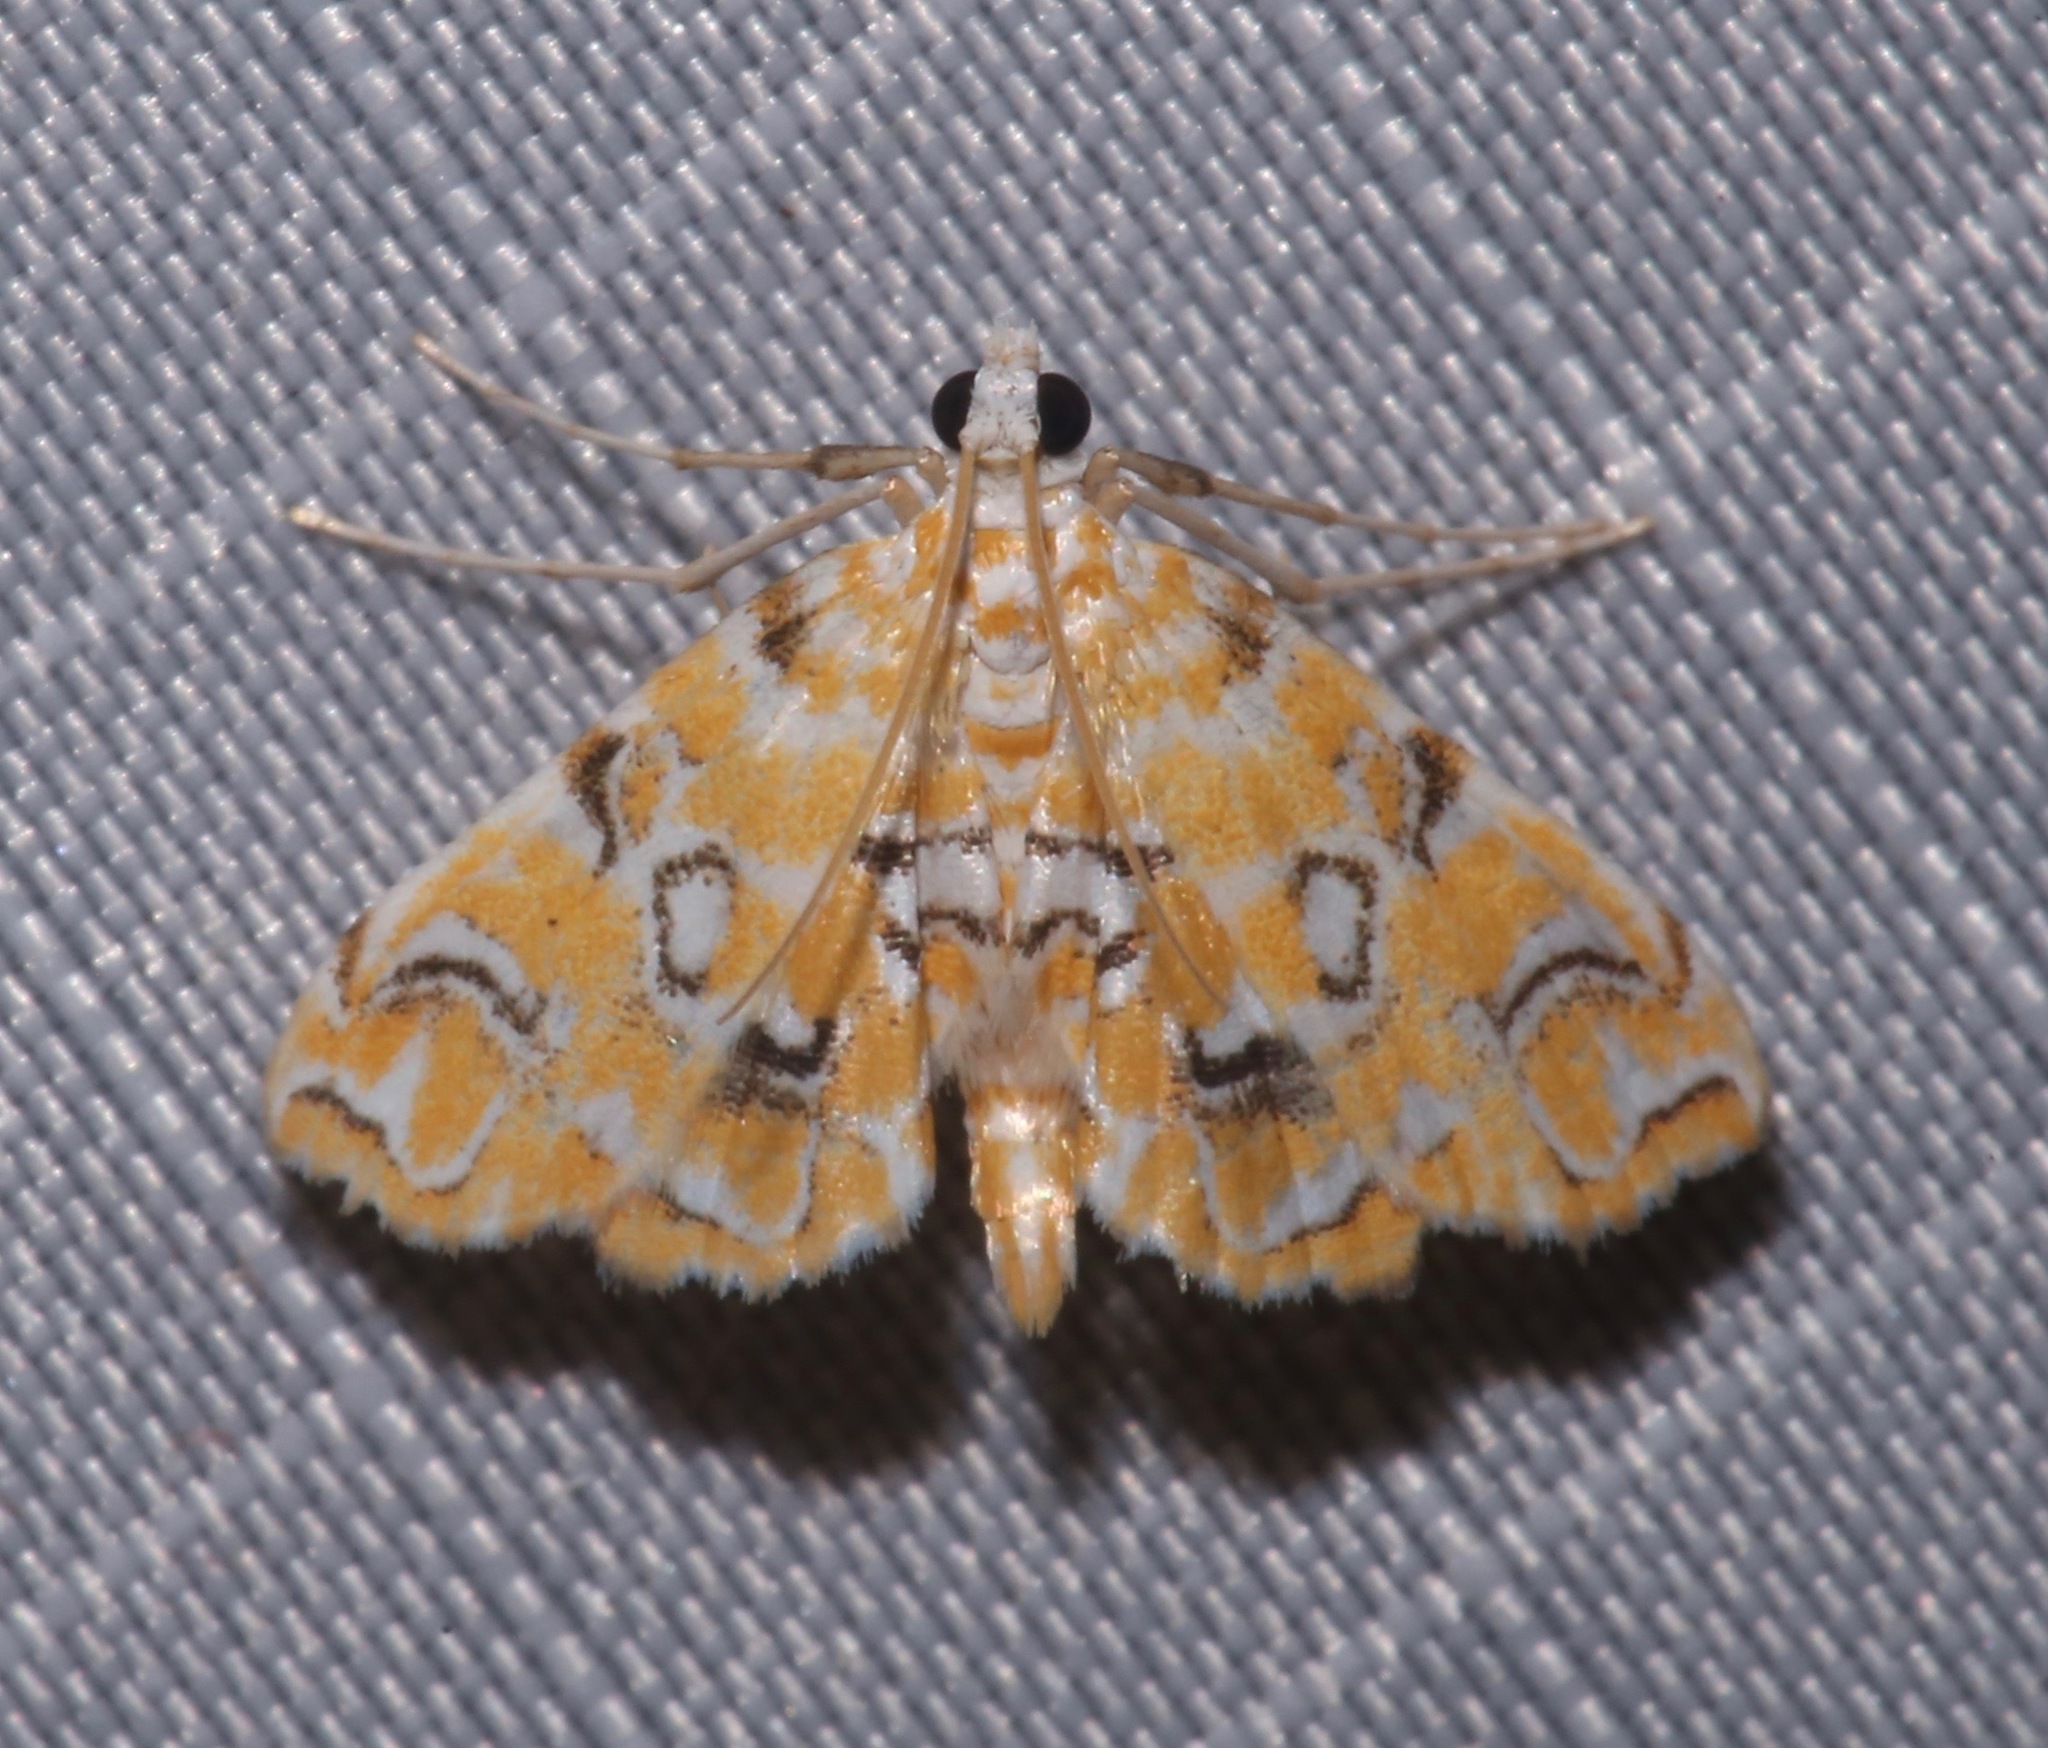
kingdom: Animalia
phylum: Arthropoda
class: Insecta
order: Lepidoptera
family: Crambidae
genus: Elophila
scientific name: Elophila icciusalis
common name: Pondside pyralid moth
